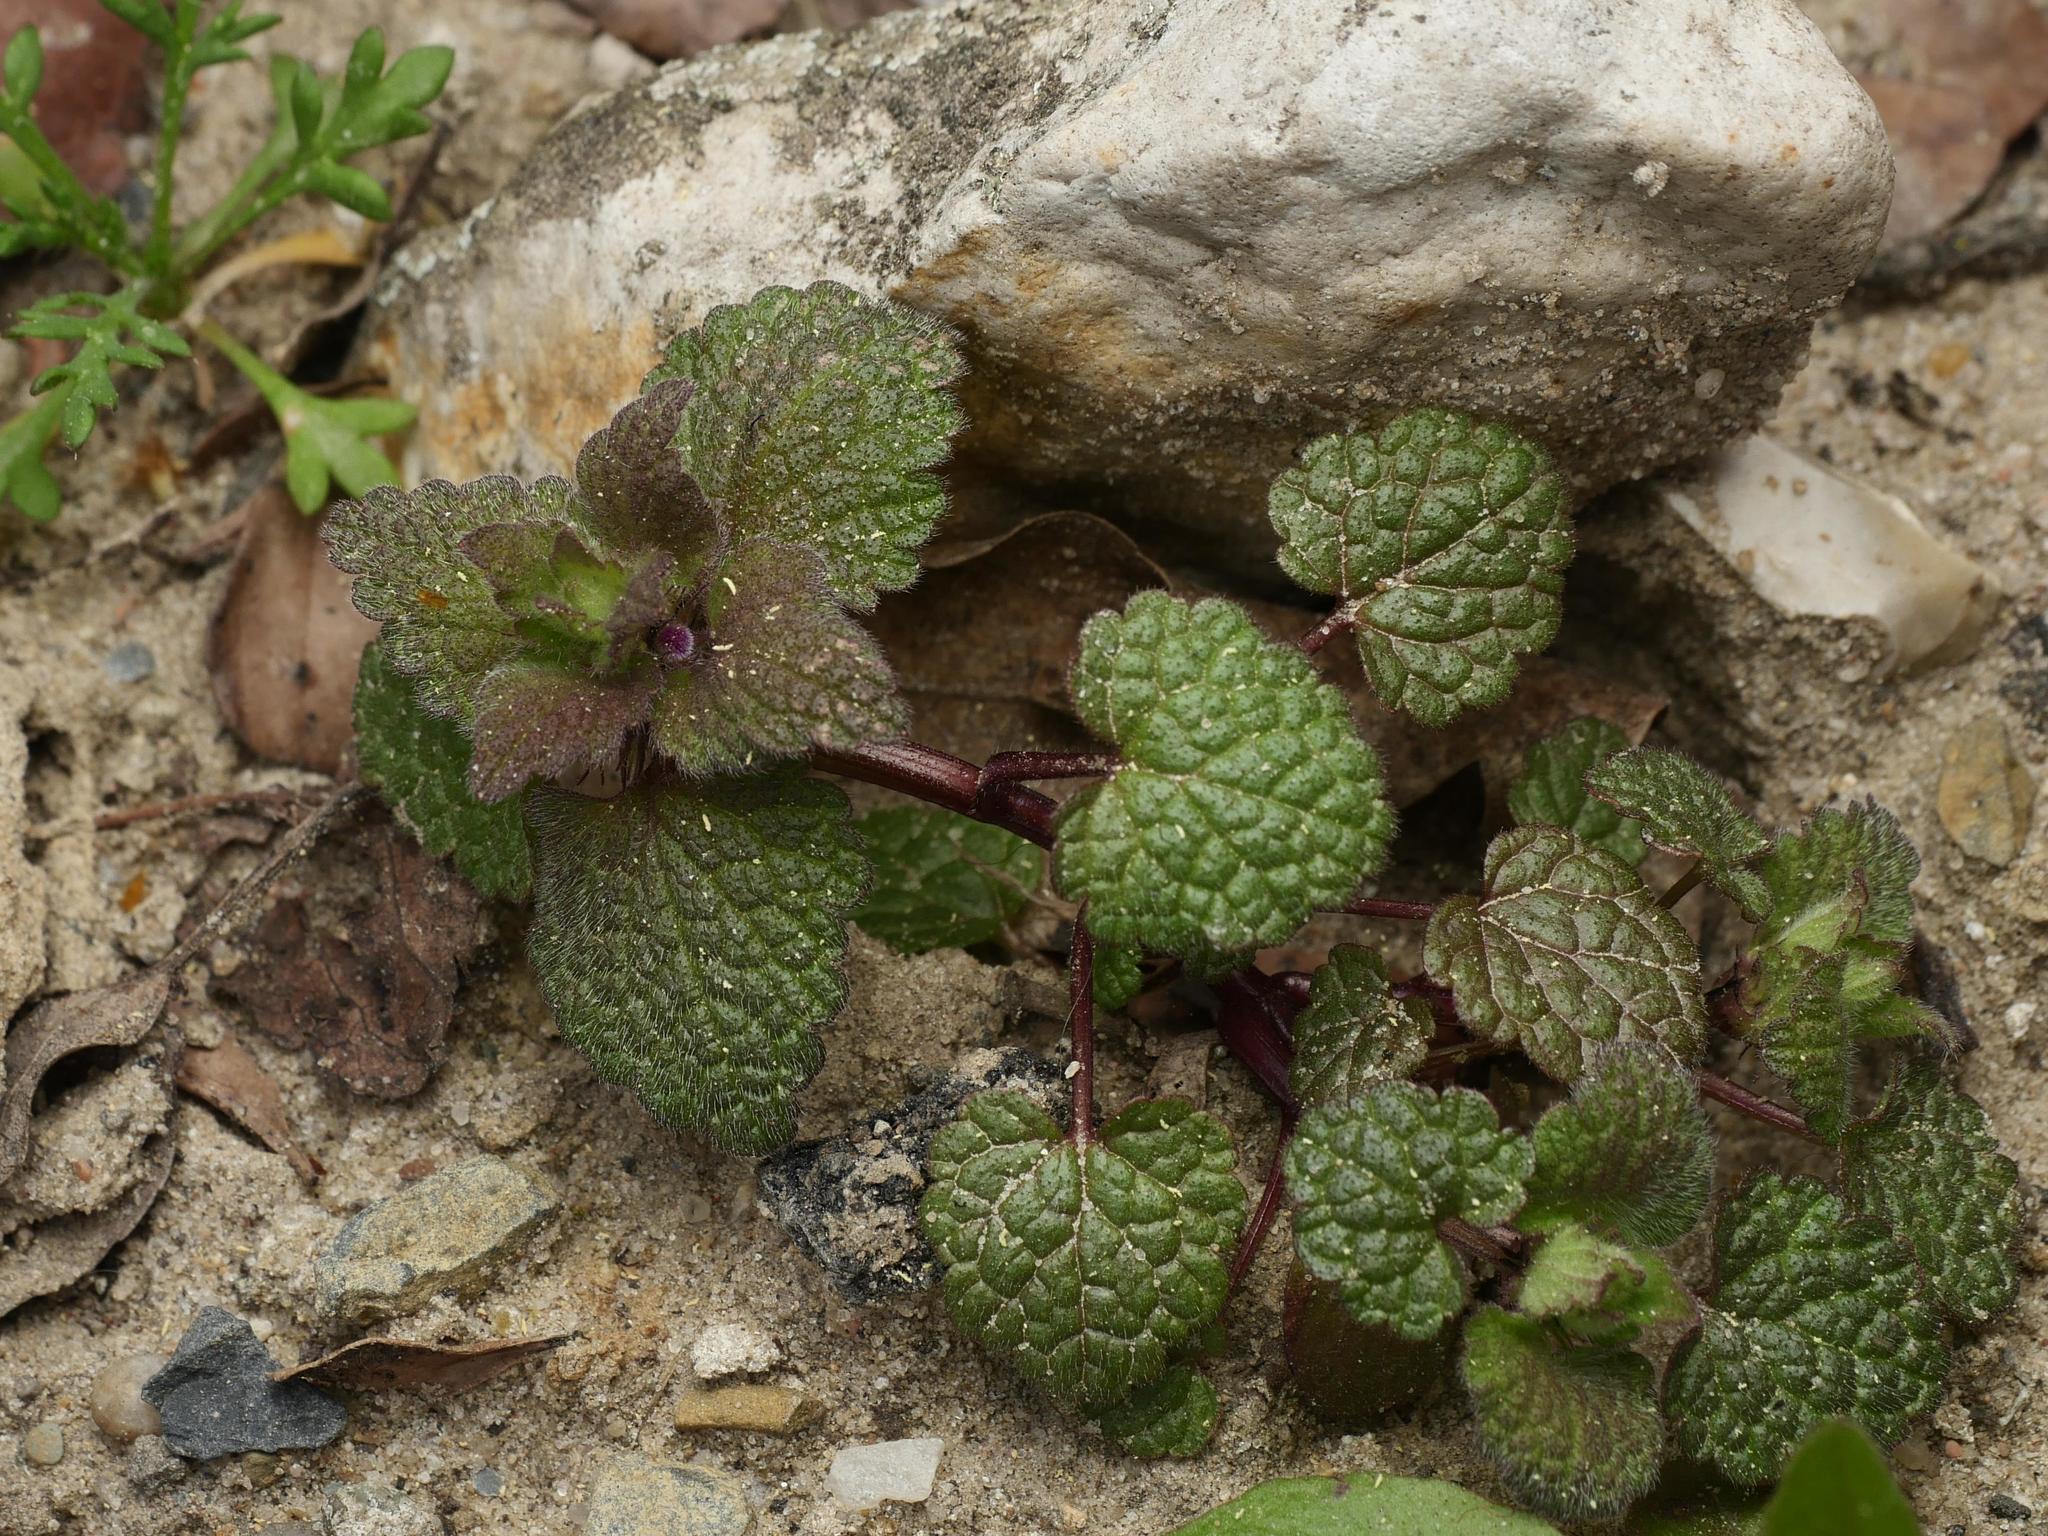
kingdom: Plantae
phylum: Tracheophyta
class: Magnoliopsida
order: Lamiales
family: Lamiaceae
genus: Lamium
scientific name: Lamium purpureum
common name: Red dead-nettle
